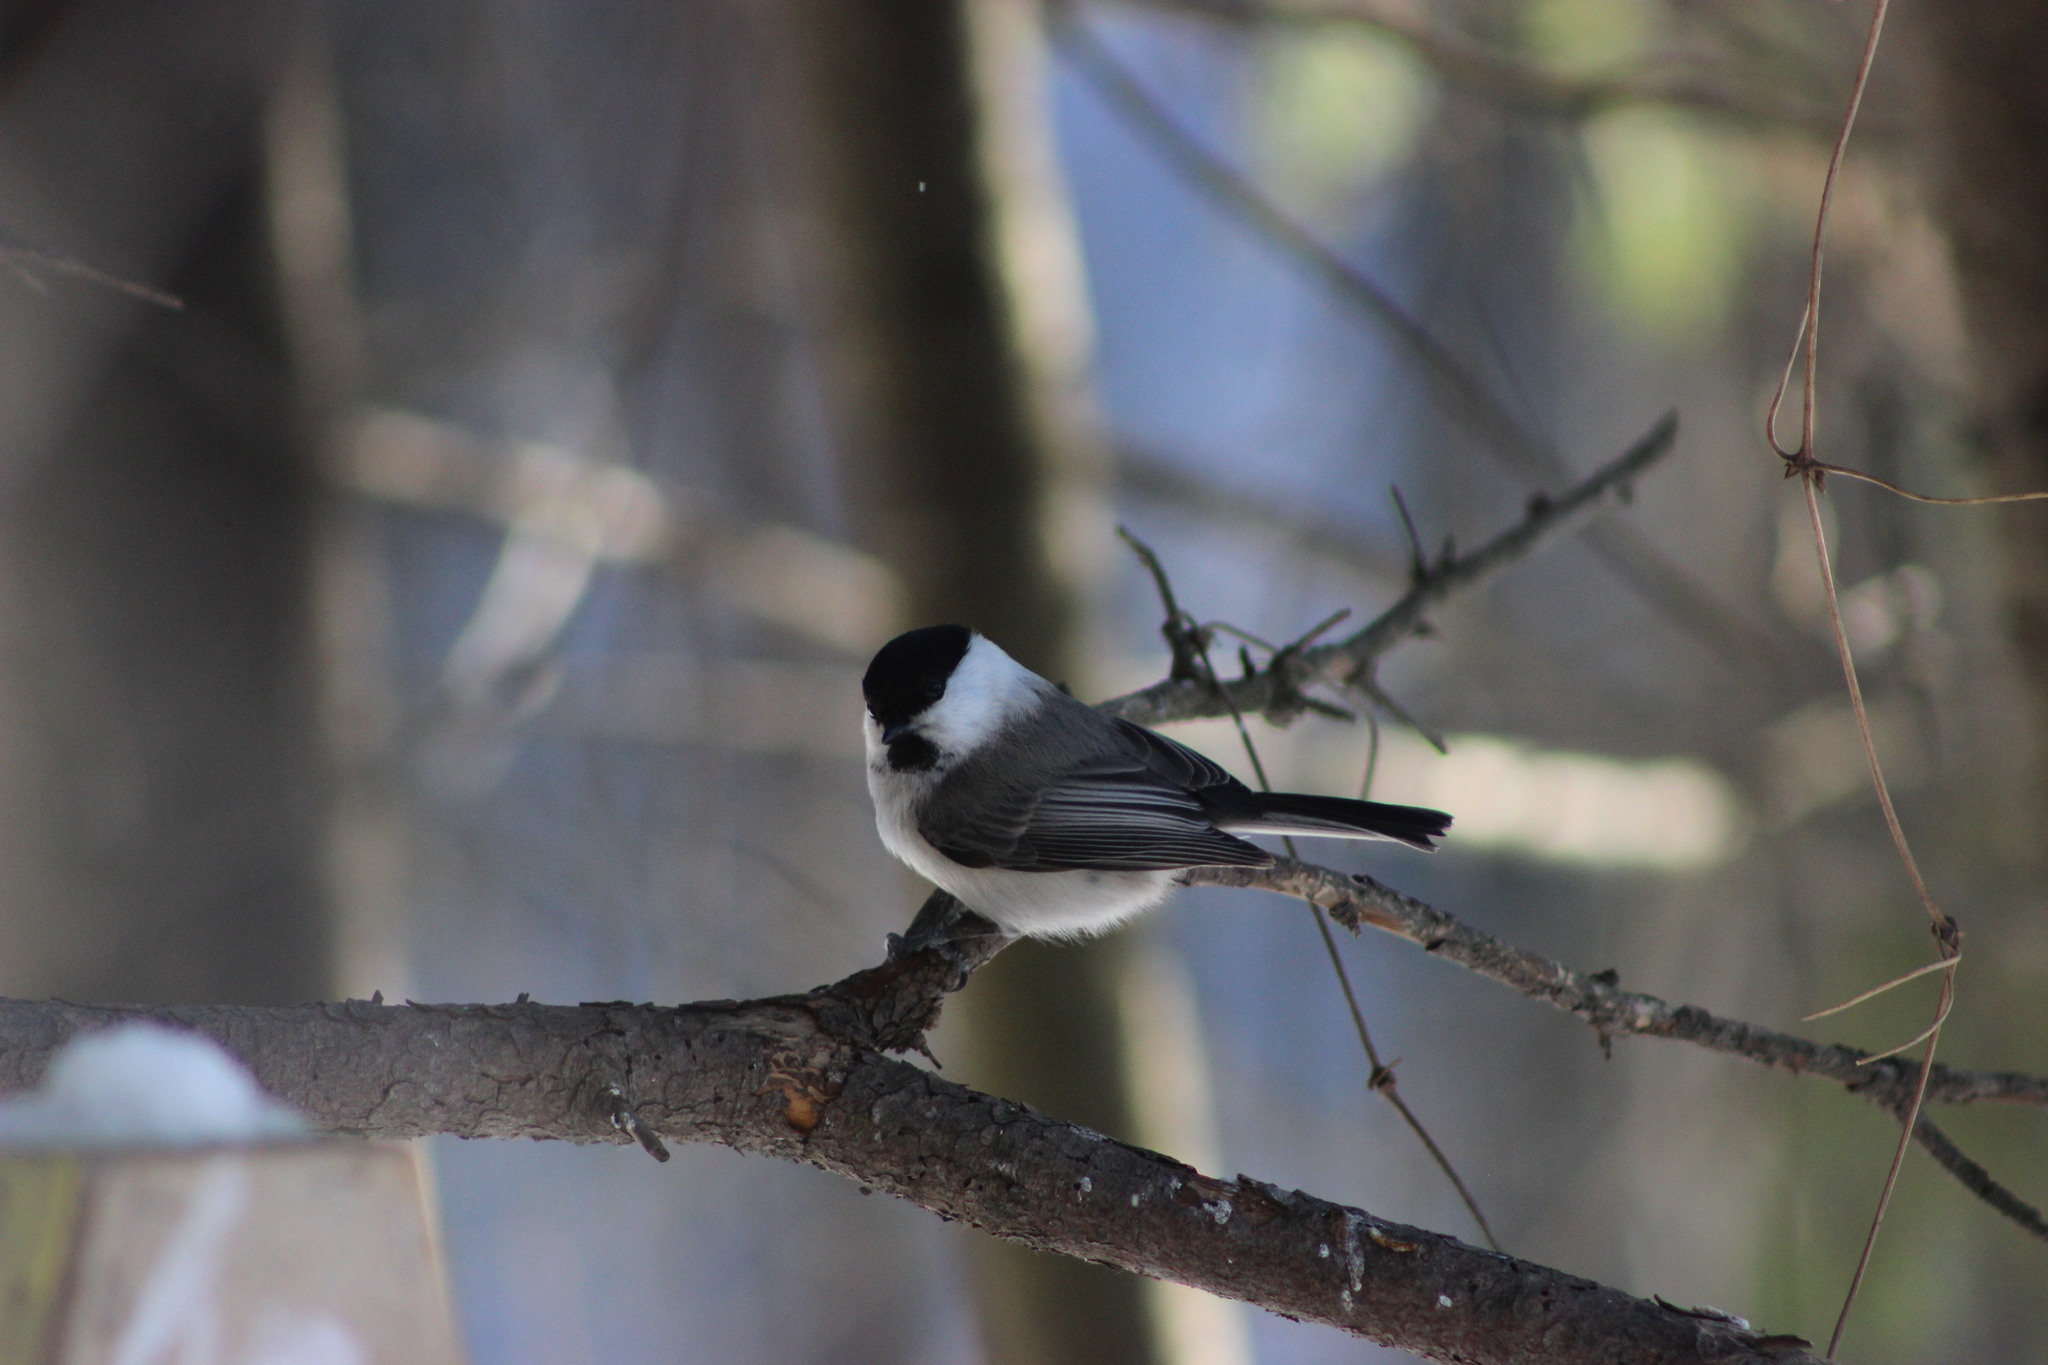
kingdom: Animalia
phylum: Chordata
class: Aves
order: Passeriformes
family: Paridae
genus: Poecile
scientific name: Poecile montanus
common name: Willow tit
